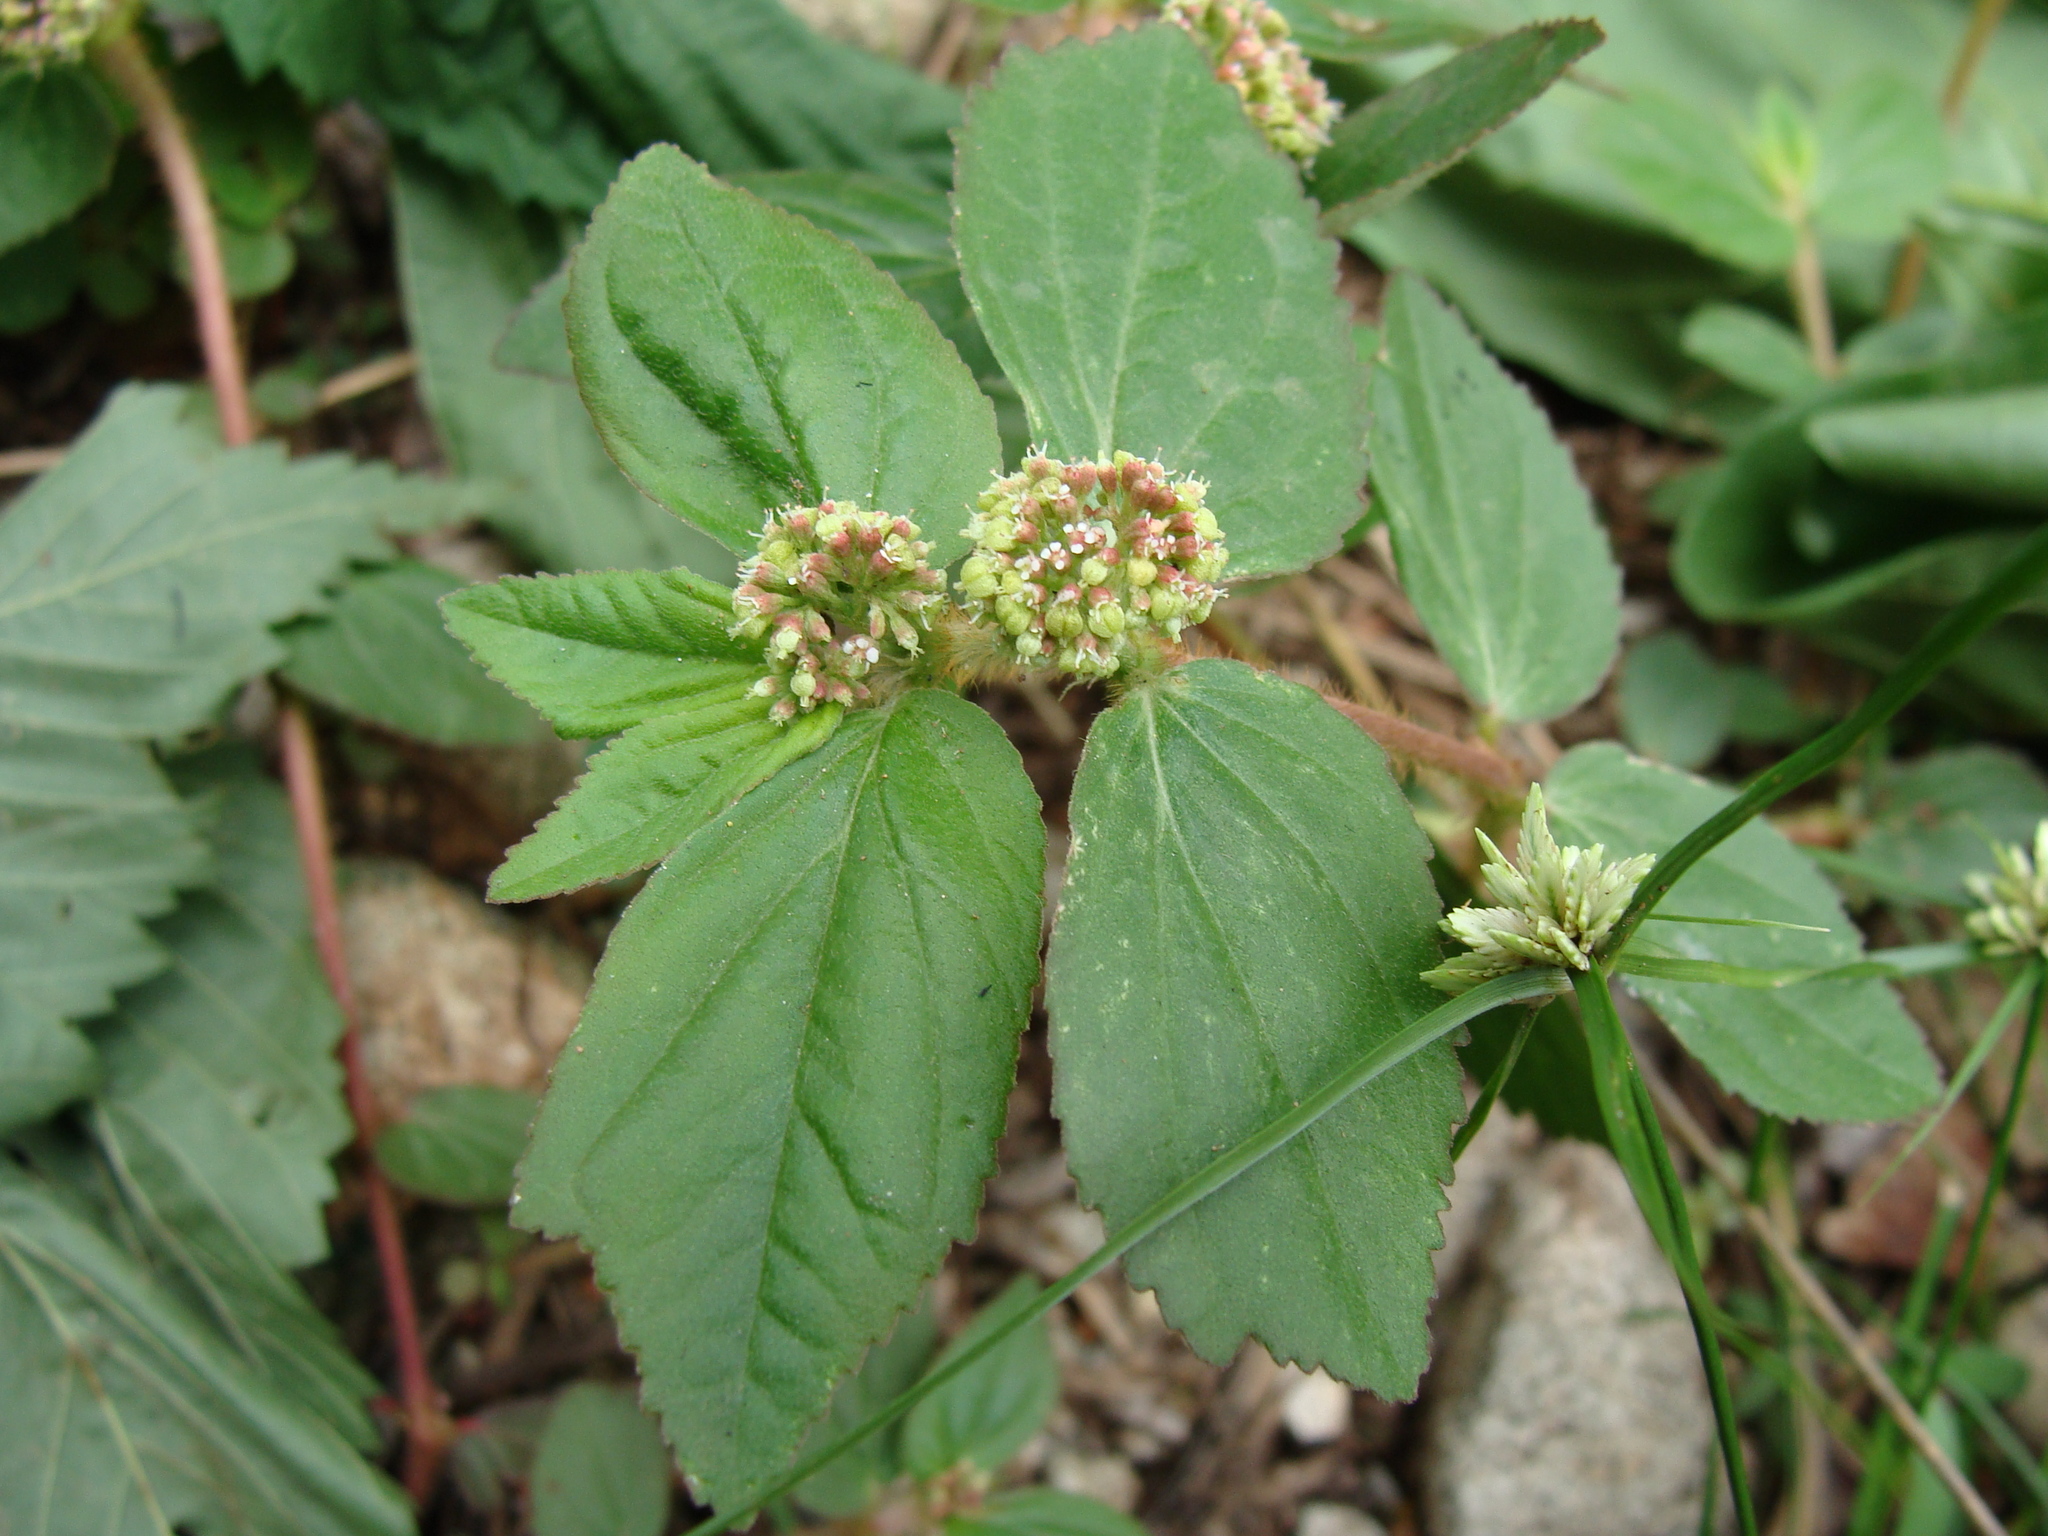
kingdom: Plantae
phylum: Tracheophyta
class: Magnoliopsida
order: Malpighiales
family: Euphorbiaceae
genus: Euphorbia
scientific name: Euphorbia hirta
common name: Pillpod sandmat
